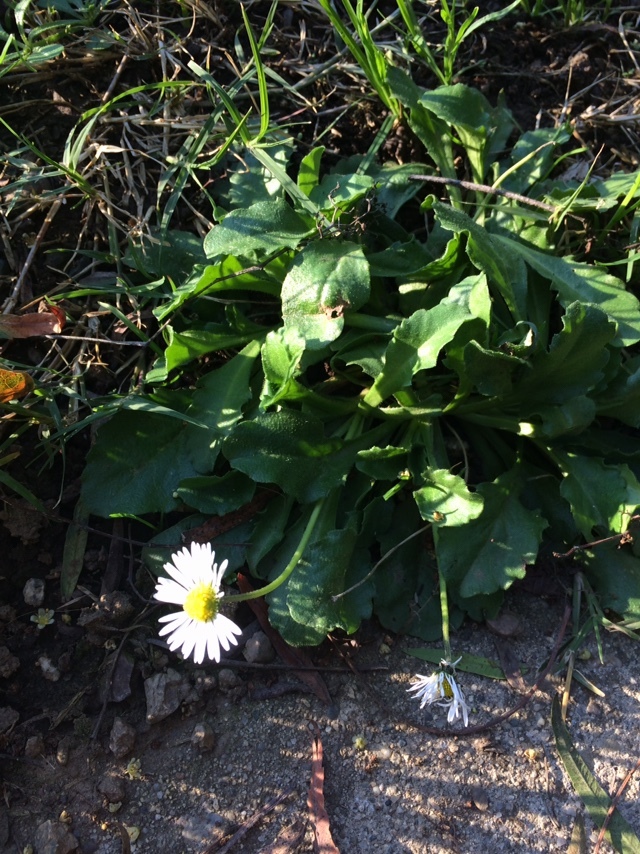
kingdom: Plantae
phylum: Tracheophyta
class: Magnoliopsida
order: Asterales
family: Asteraceae
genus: Bellis
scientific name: Bellis perennis
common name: Lawndaisy
